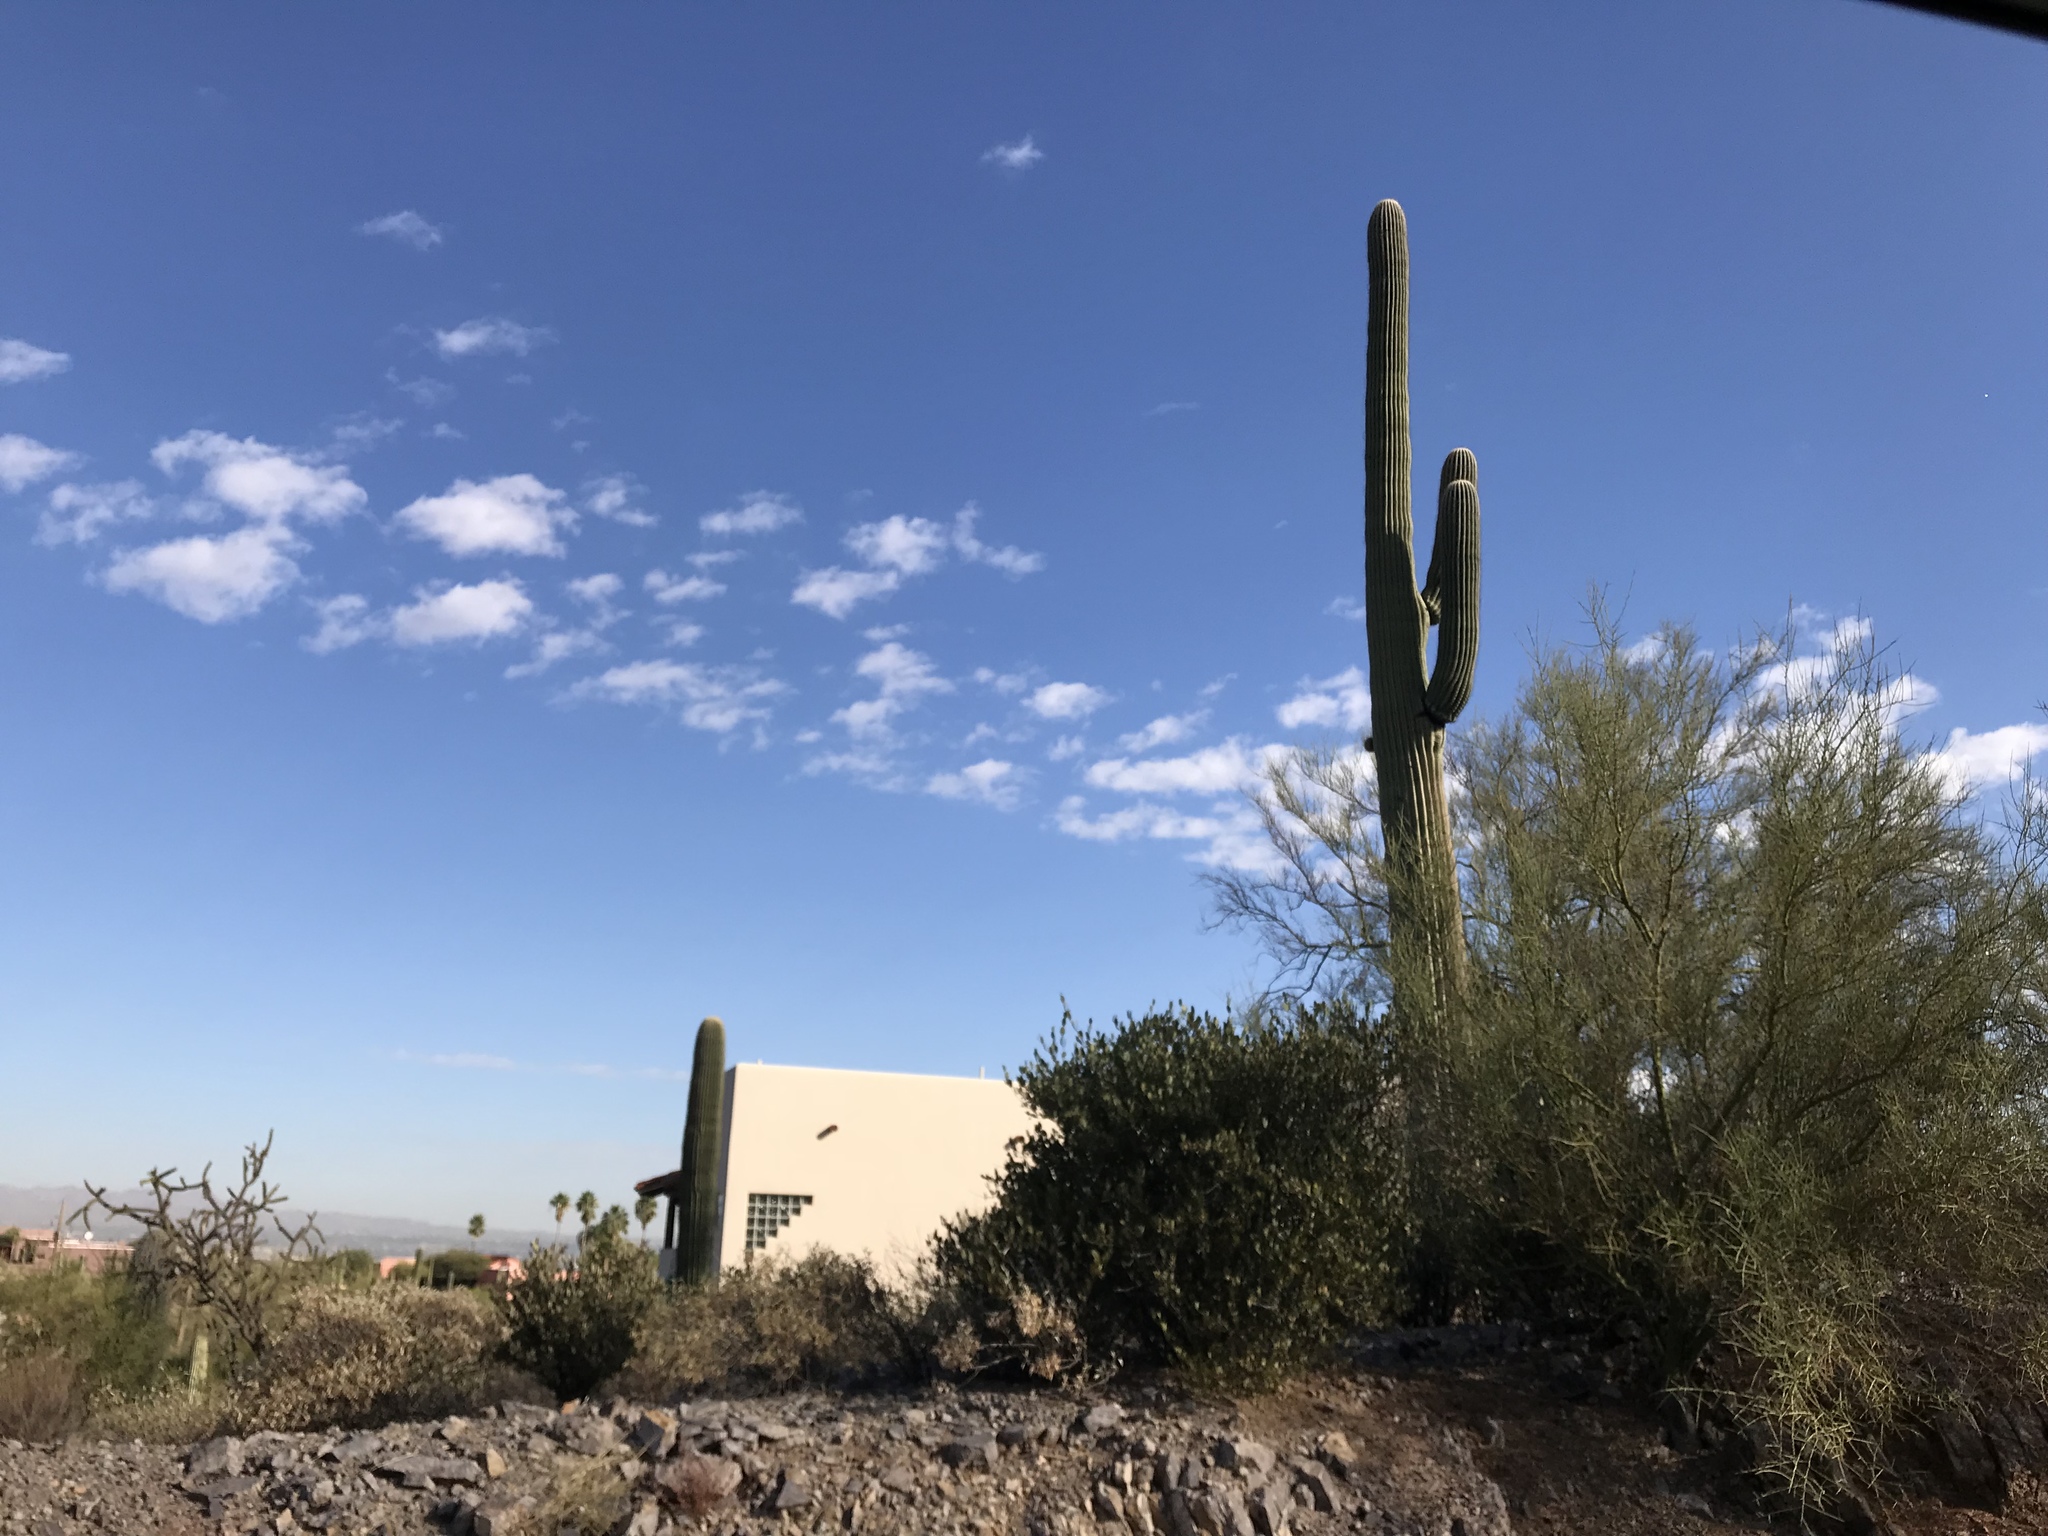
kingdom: Plantae
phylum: Tracheophyta
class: Magnoliopsida
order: Caryophyllales
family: Cactaceae
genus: Carnegiea
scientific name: Carnegiea gigantea
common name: Saguaro
